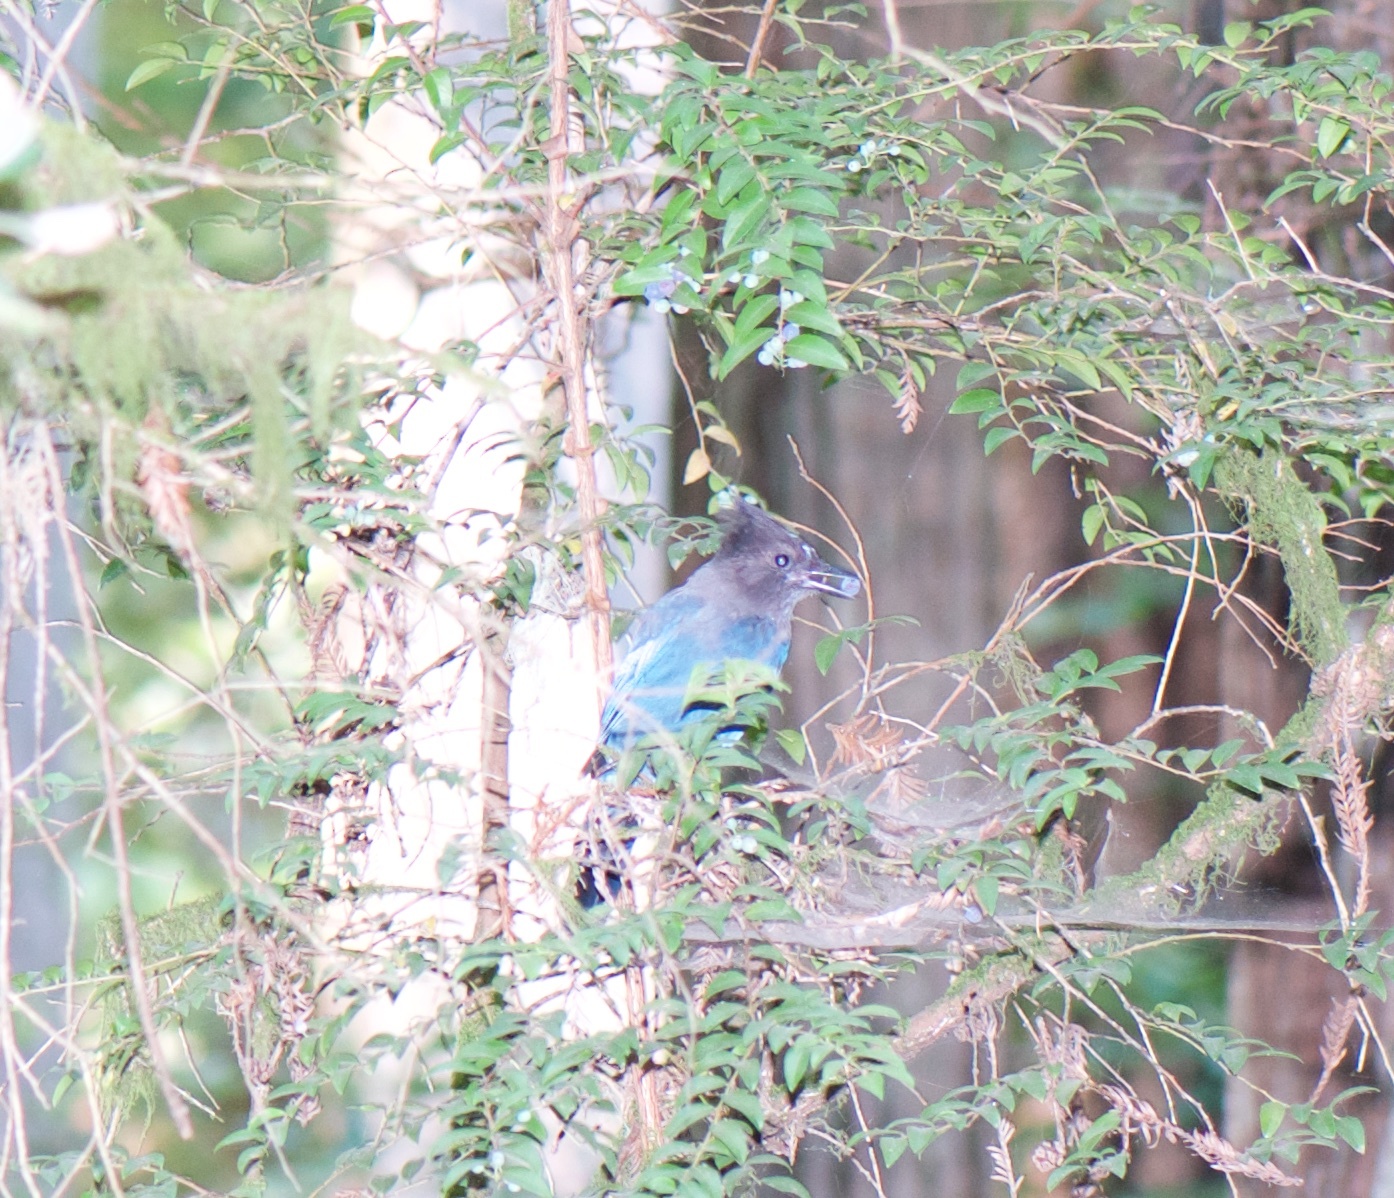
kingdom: Animalia
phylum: Chordata
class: Aves
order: Passeriformes
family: Corvidae
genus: Cyanocitta
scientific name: Cyanocitta stelleri
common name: Steller's jay
